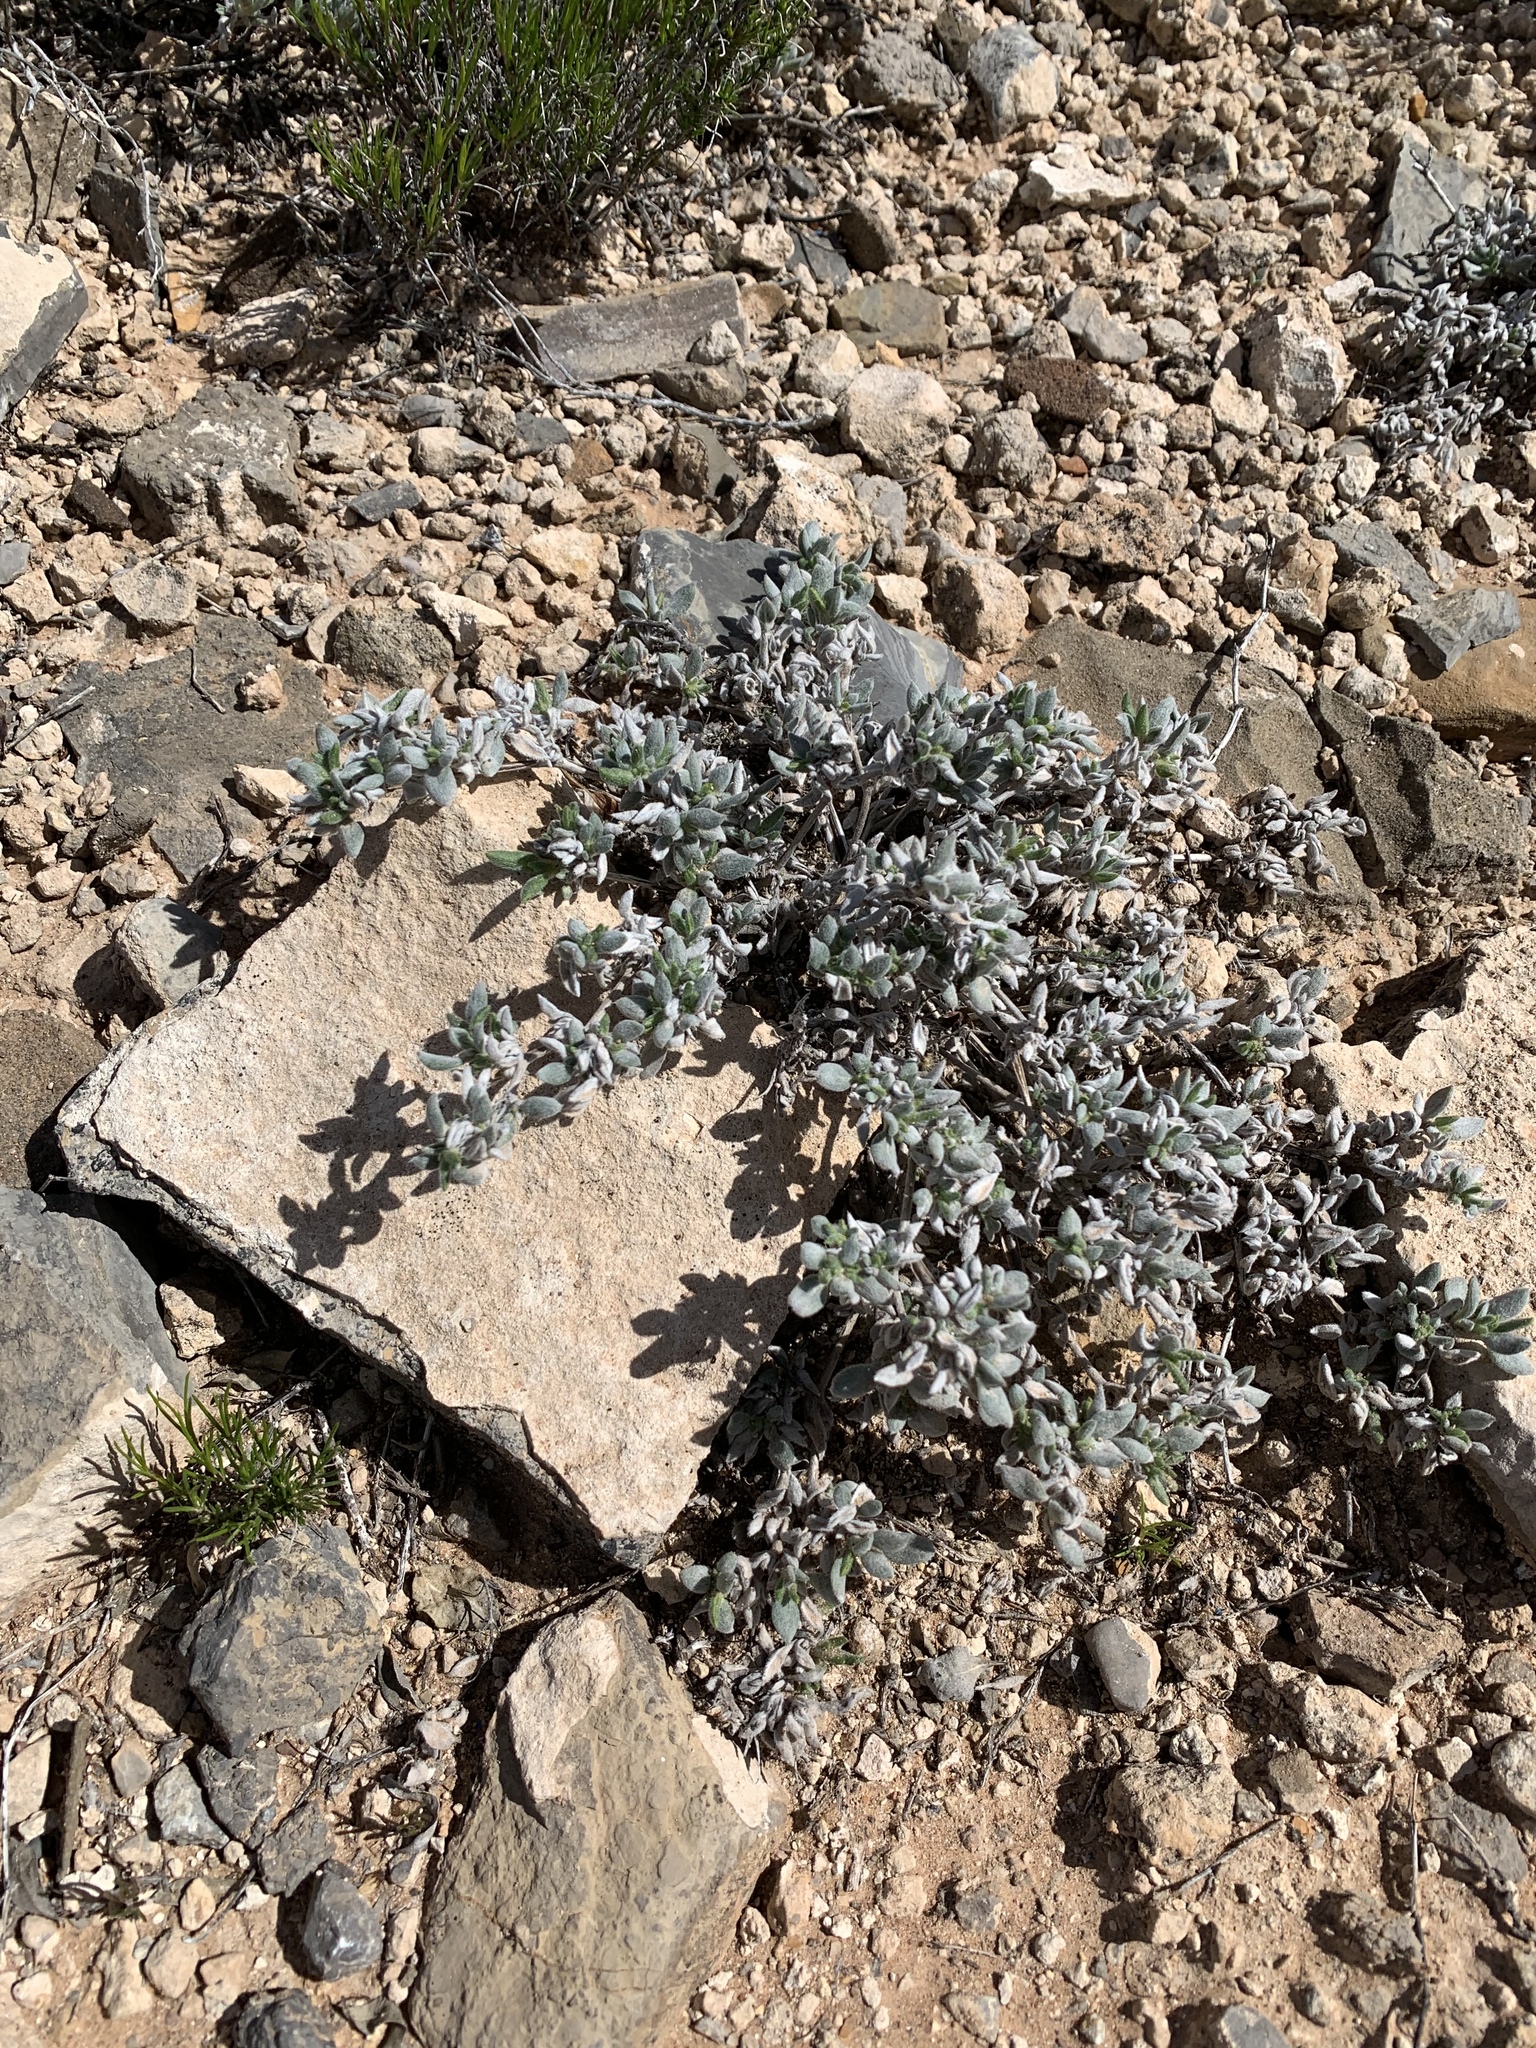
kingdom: Plantae
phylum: Tracheophyta
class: Magnoliopsida
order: Boraginales
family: Ehretiaceae
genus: Tiquilia
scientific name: Tiquilia canescens
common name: Hairy tiquilia
